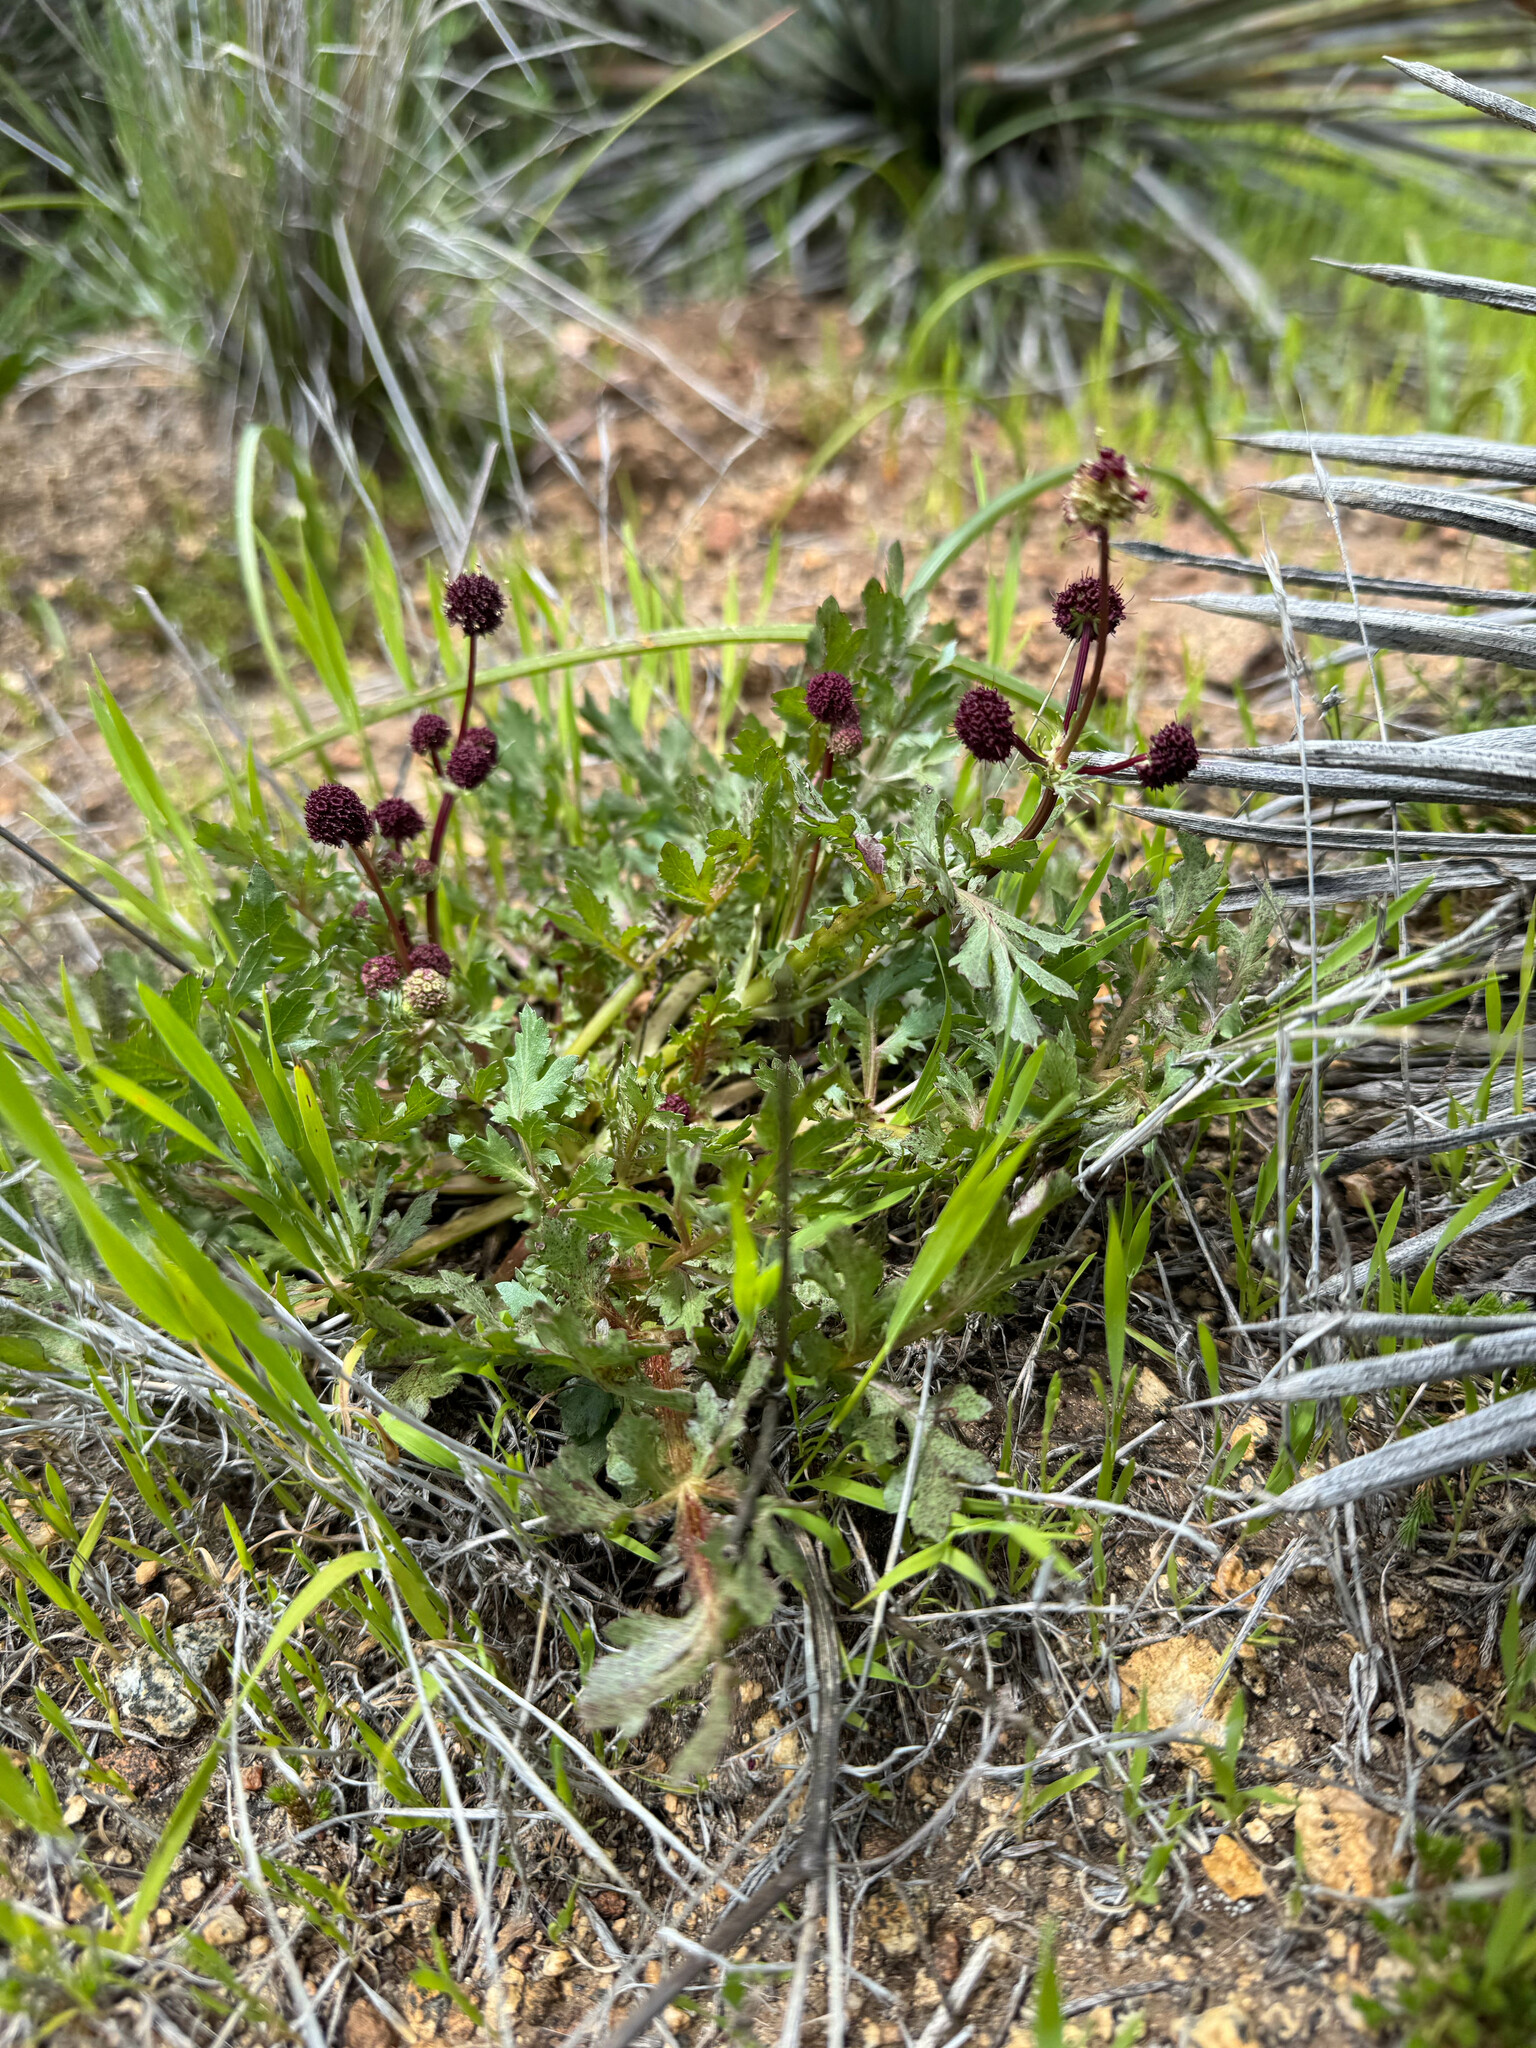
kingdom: Plantae
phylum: Tracheophyta
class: Magnoliopsida
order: Apiales
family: Apiaceae
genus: Sanicula
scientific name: Sanicula bipinnatifida
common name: Shoe-buttons
